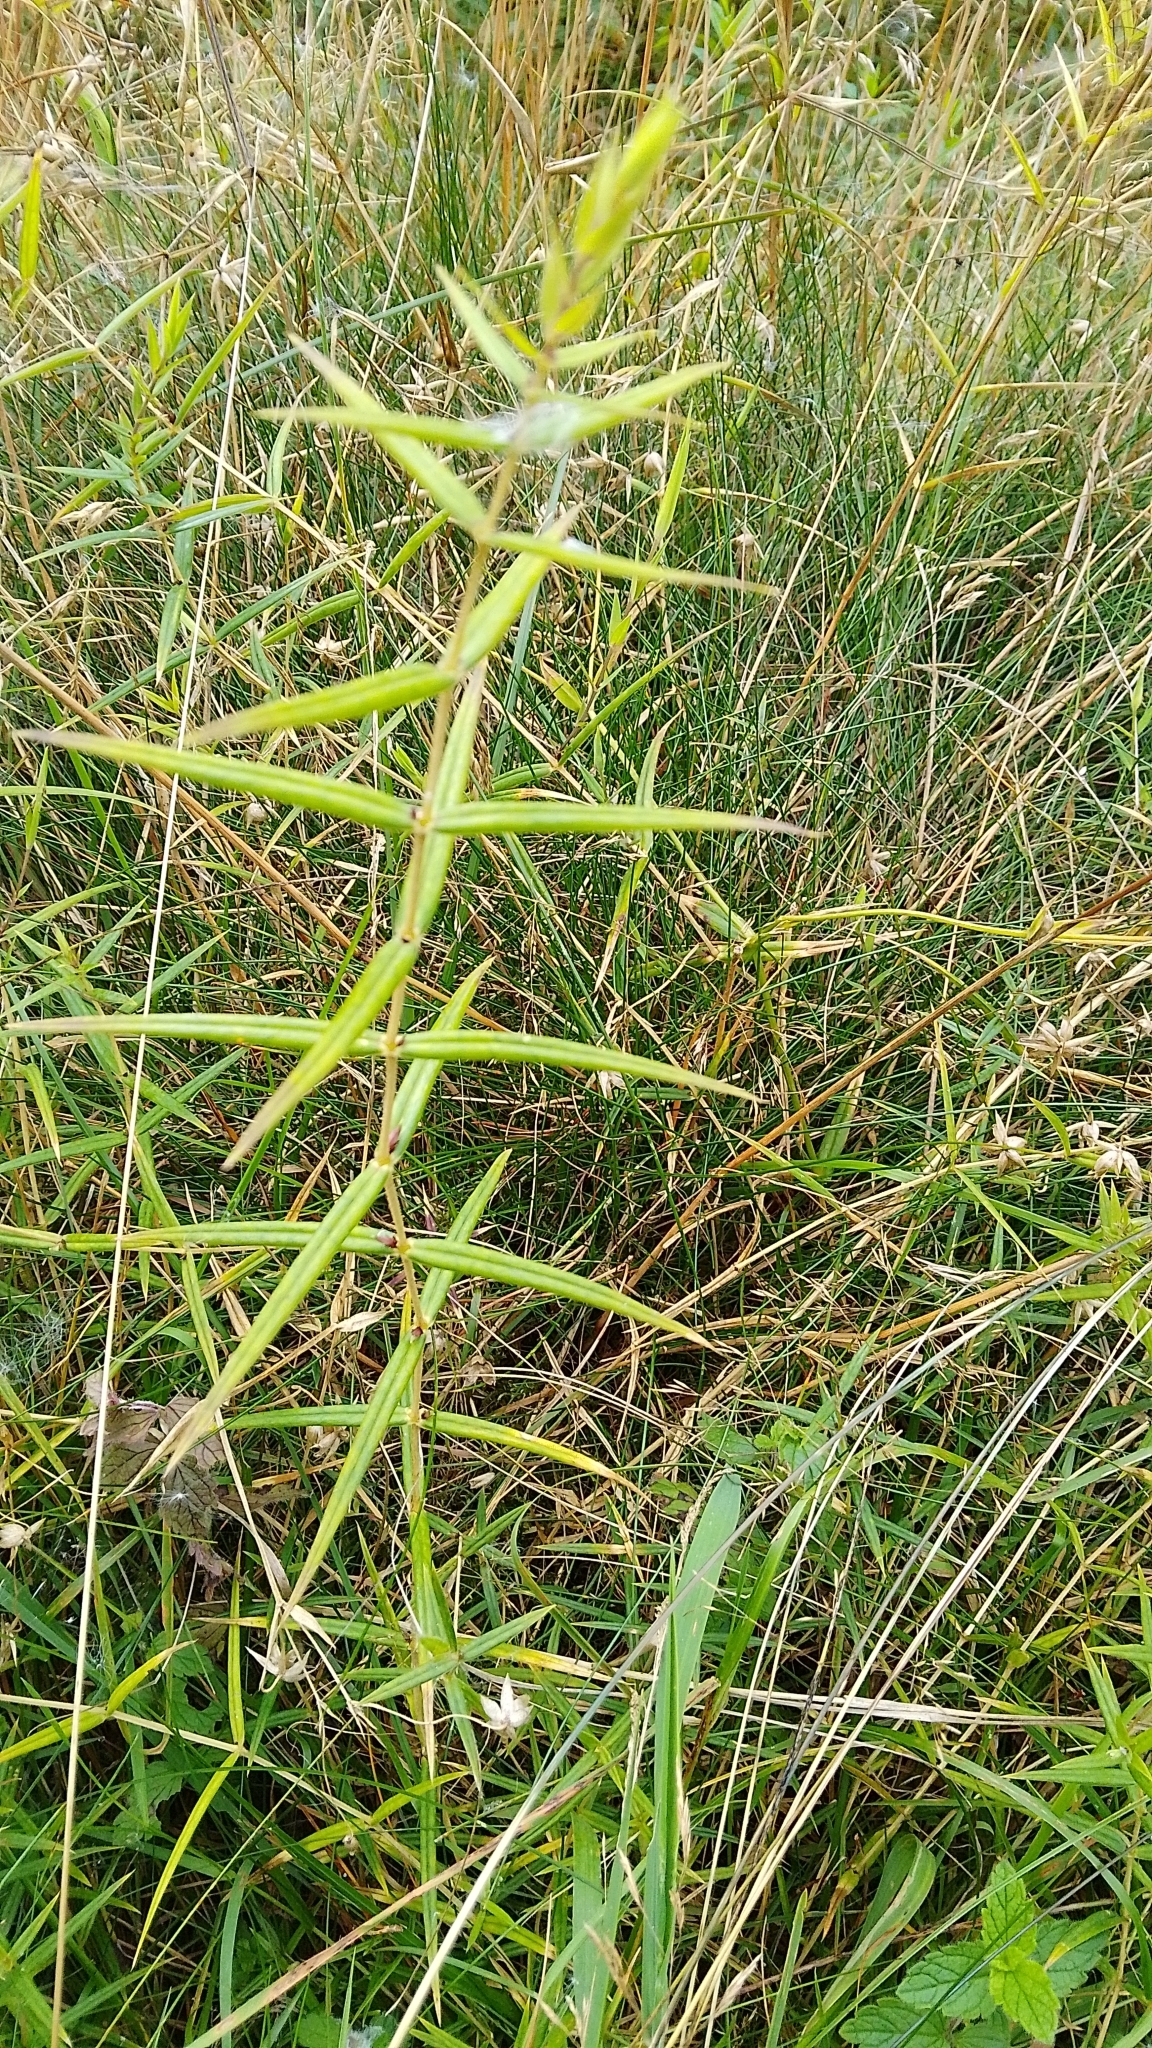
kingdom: Plantae
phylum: Tracheophyta
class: Magnoliopsida
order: Caryophyllales
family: Caryophyllaceae
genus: Rabelera
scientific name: Rabelera holostea
